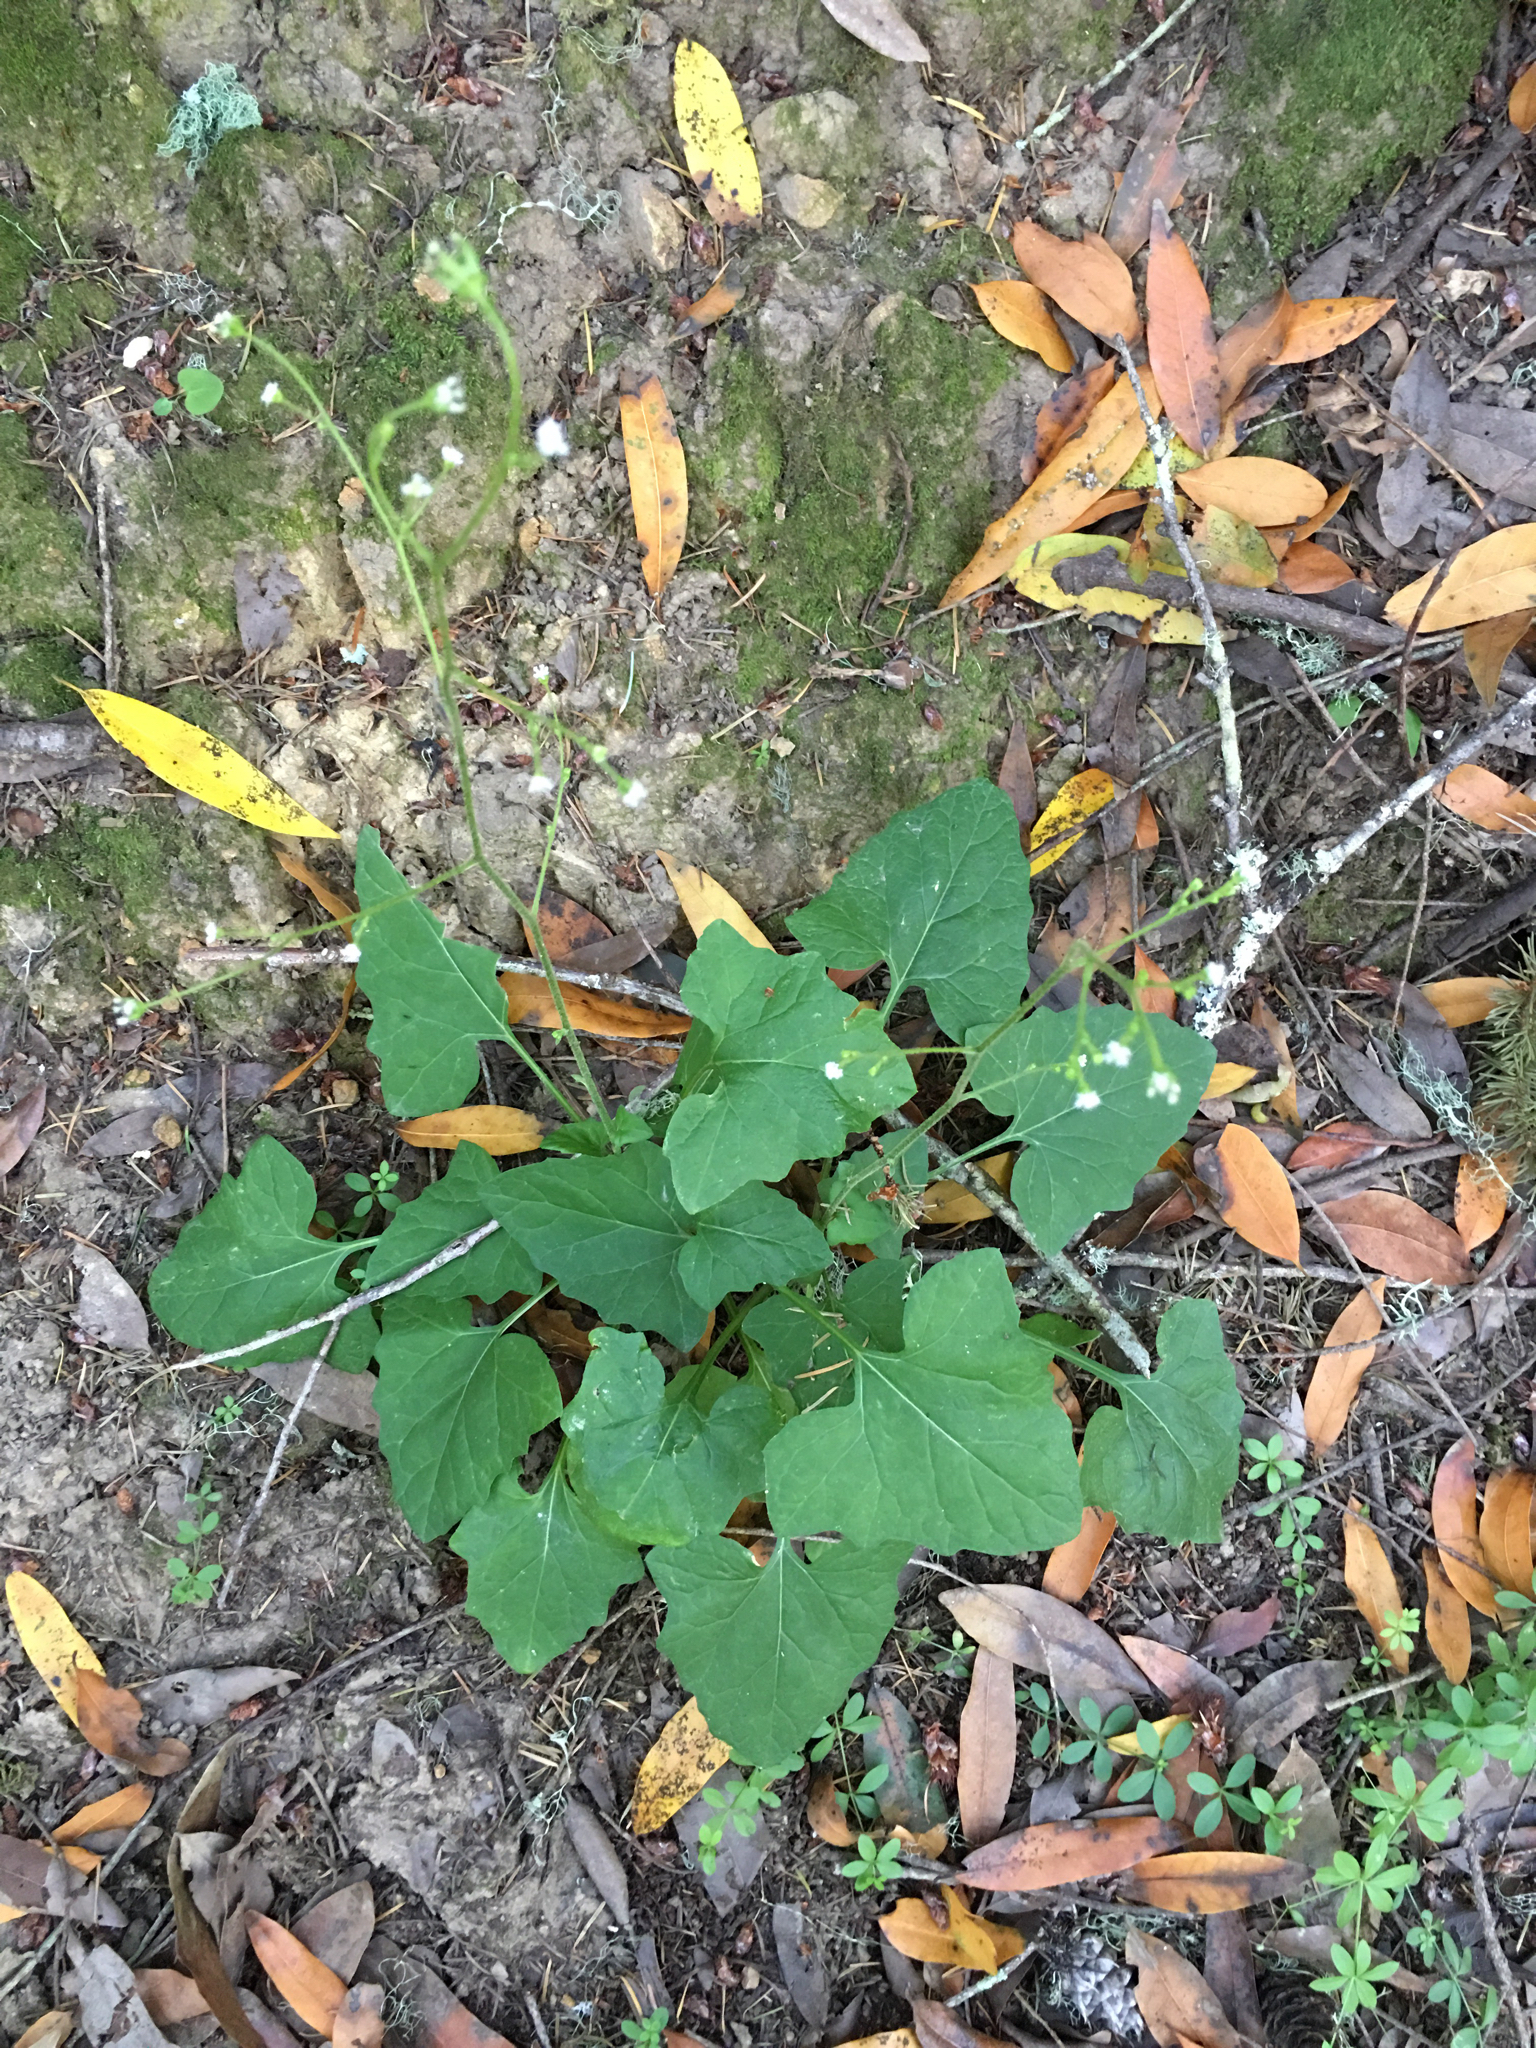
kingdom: Plantae
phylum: Tracheophyta
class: Magnoliopsida
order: Asterales
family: Asteraceae
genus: Adenocaulon
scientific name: Adenocaulon bicolor
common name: Trailplant
